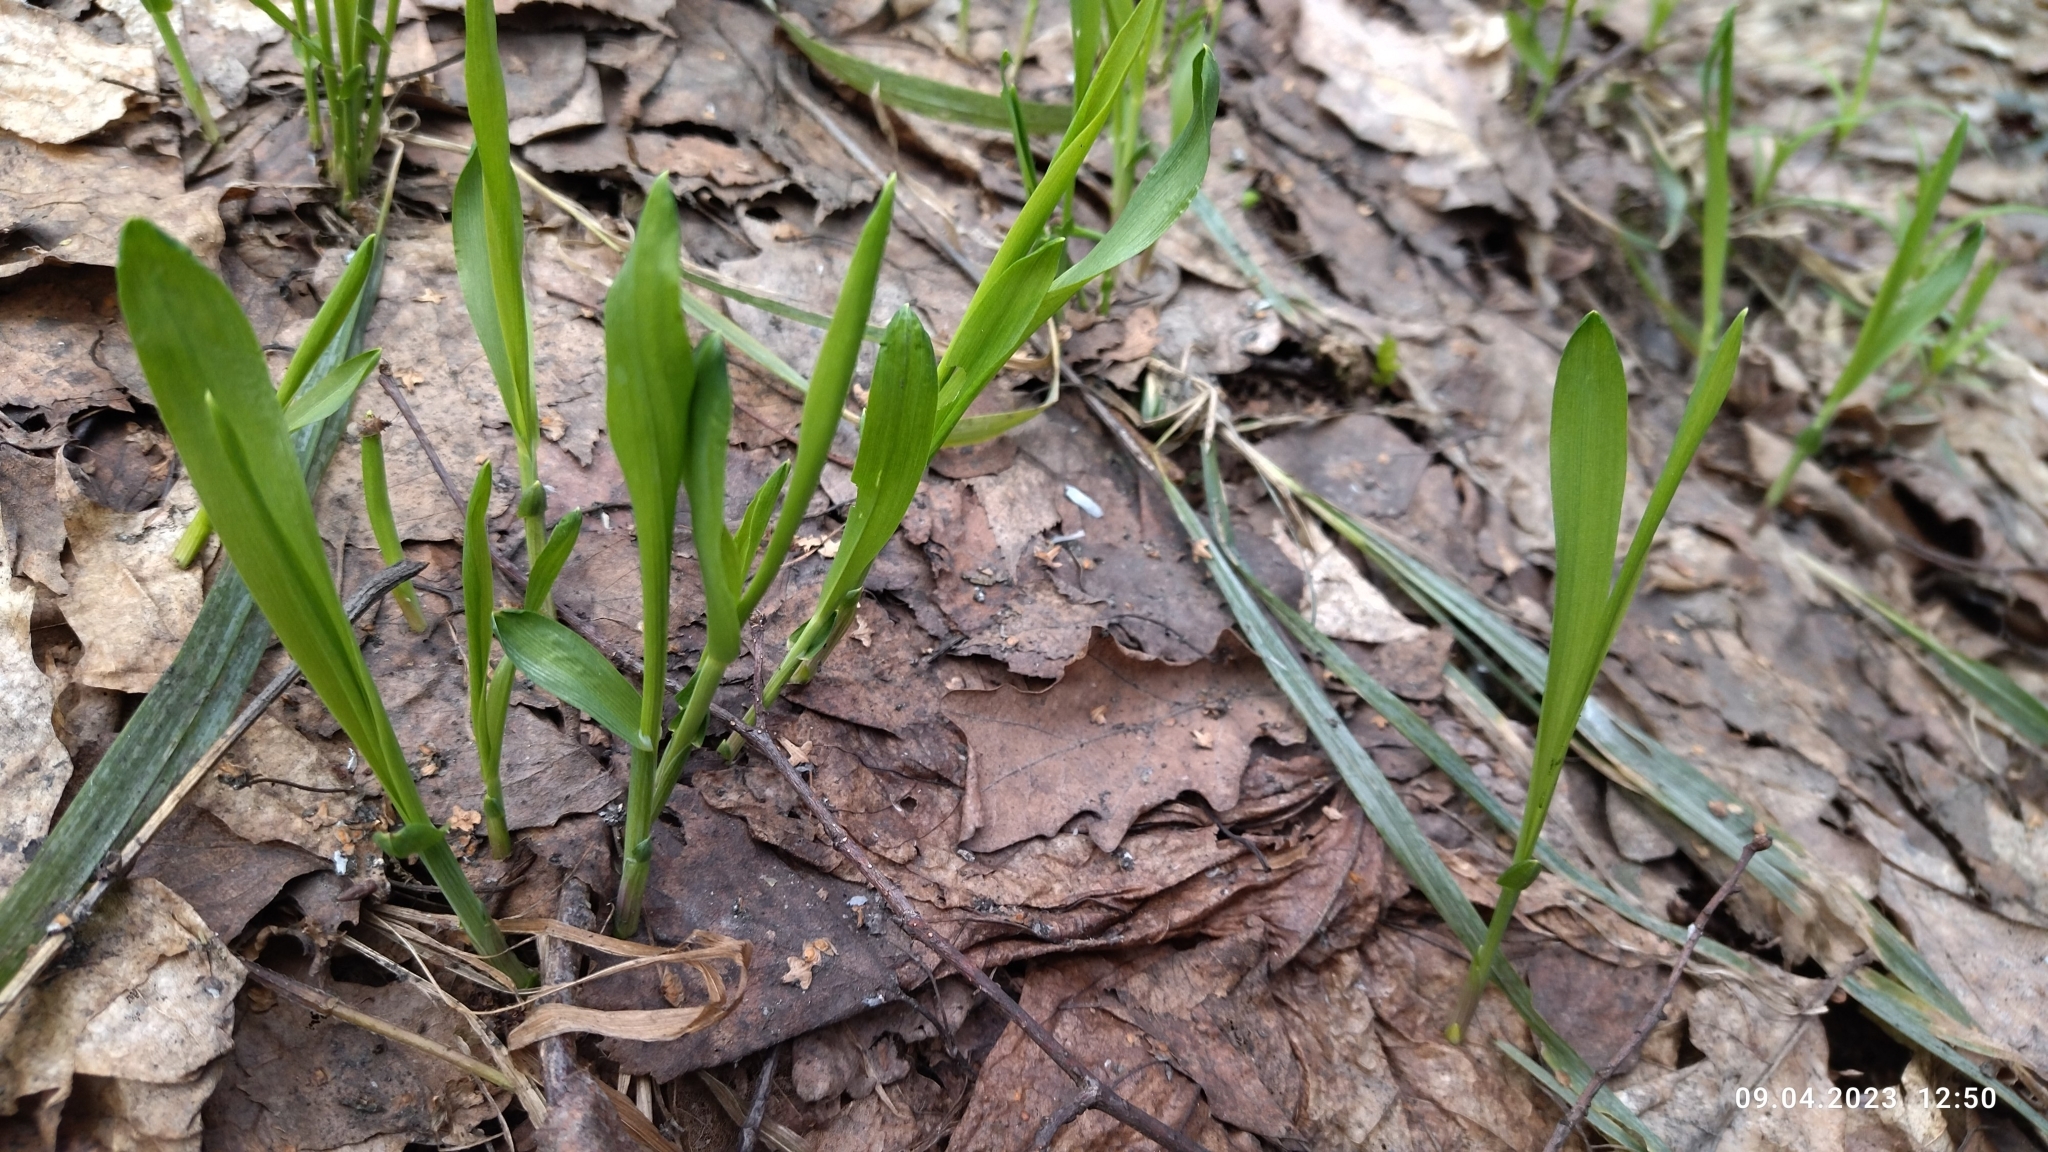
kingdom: Plantae
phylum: Tracheophyta
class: Liliopsida
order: Poales
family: Poaceae
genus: Milium
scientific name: Milium effusum
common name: Wood millet
